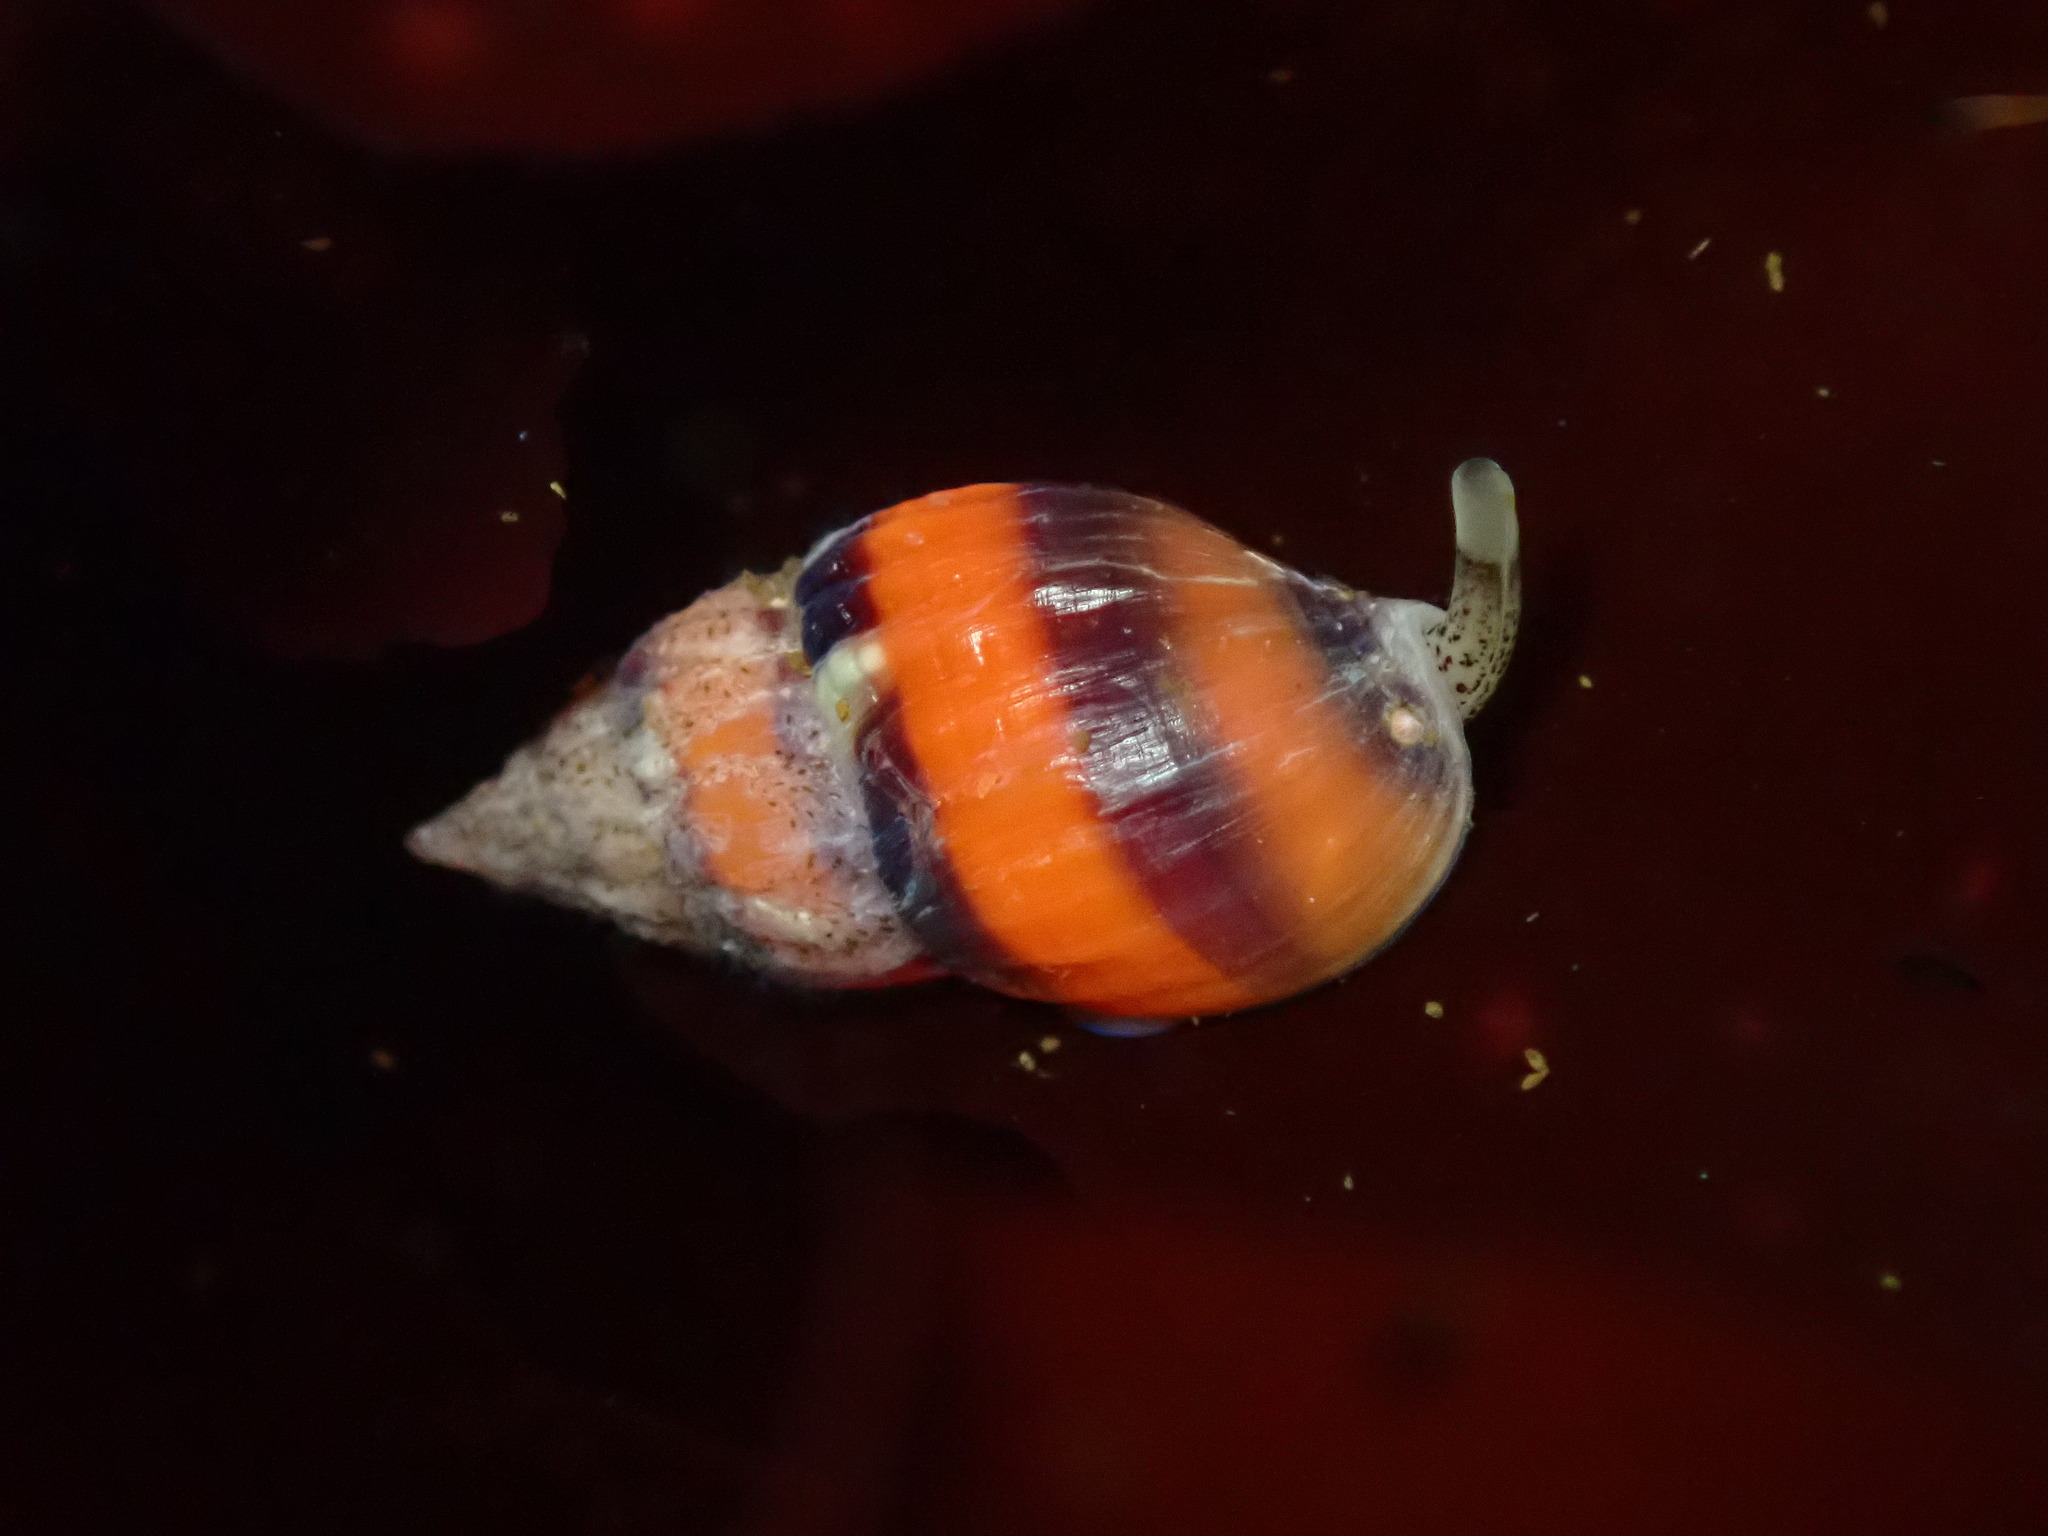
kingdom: Animalia
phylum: Mollusca
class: Gastropoda
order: Neogastropoda
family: Columbellidae
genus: Amphissa
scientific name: Amphissa versicolor
